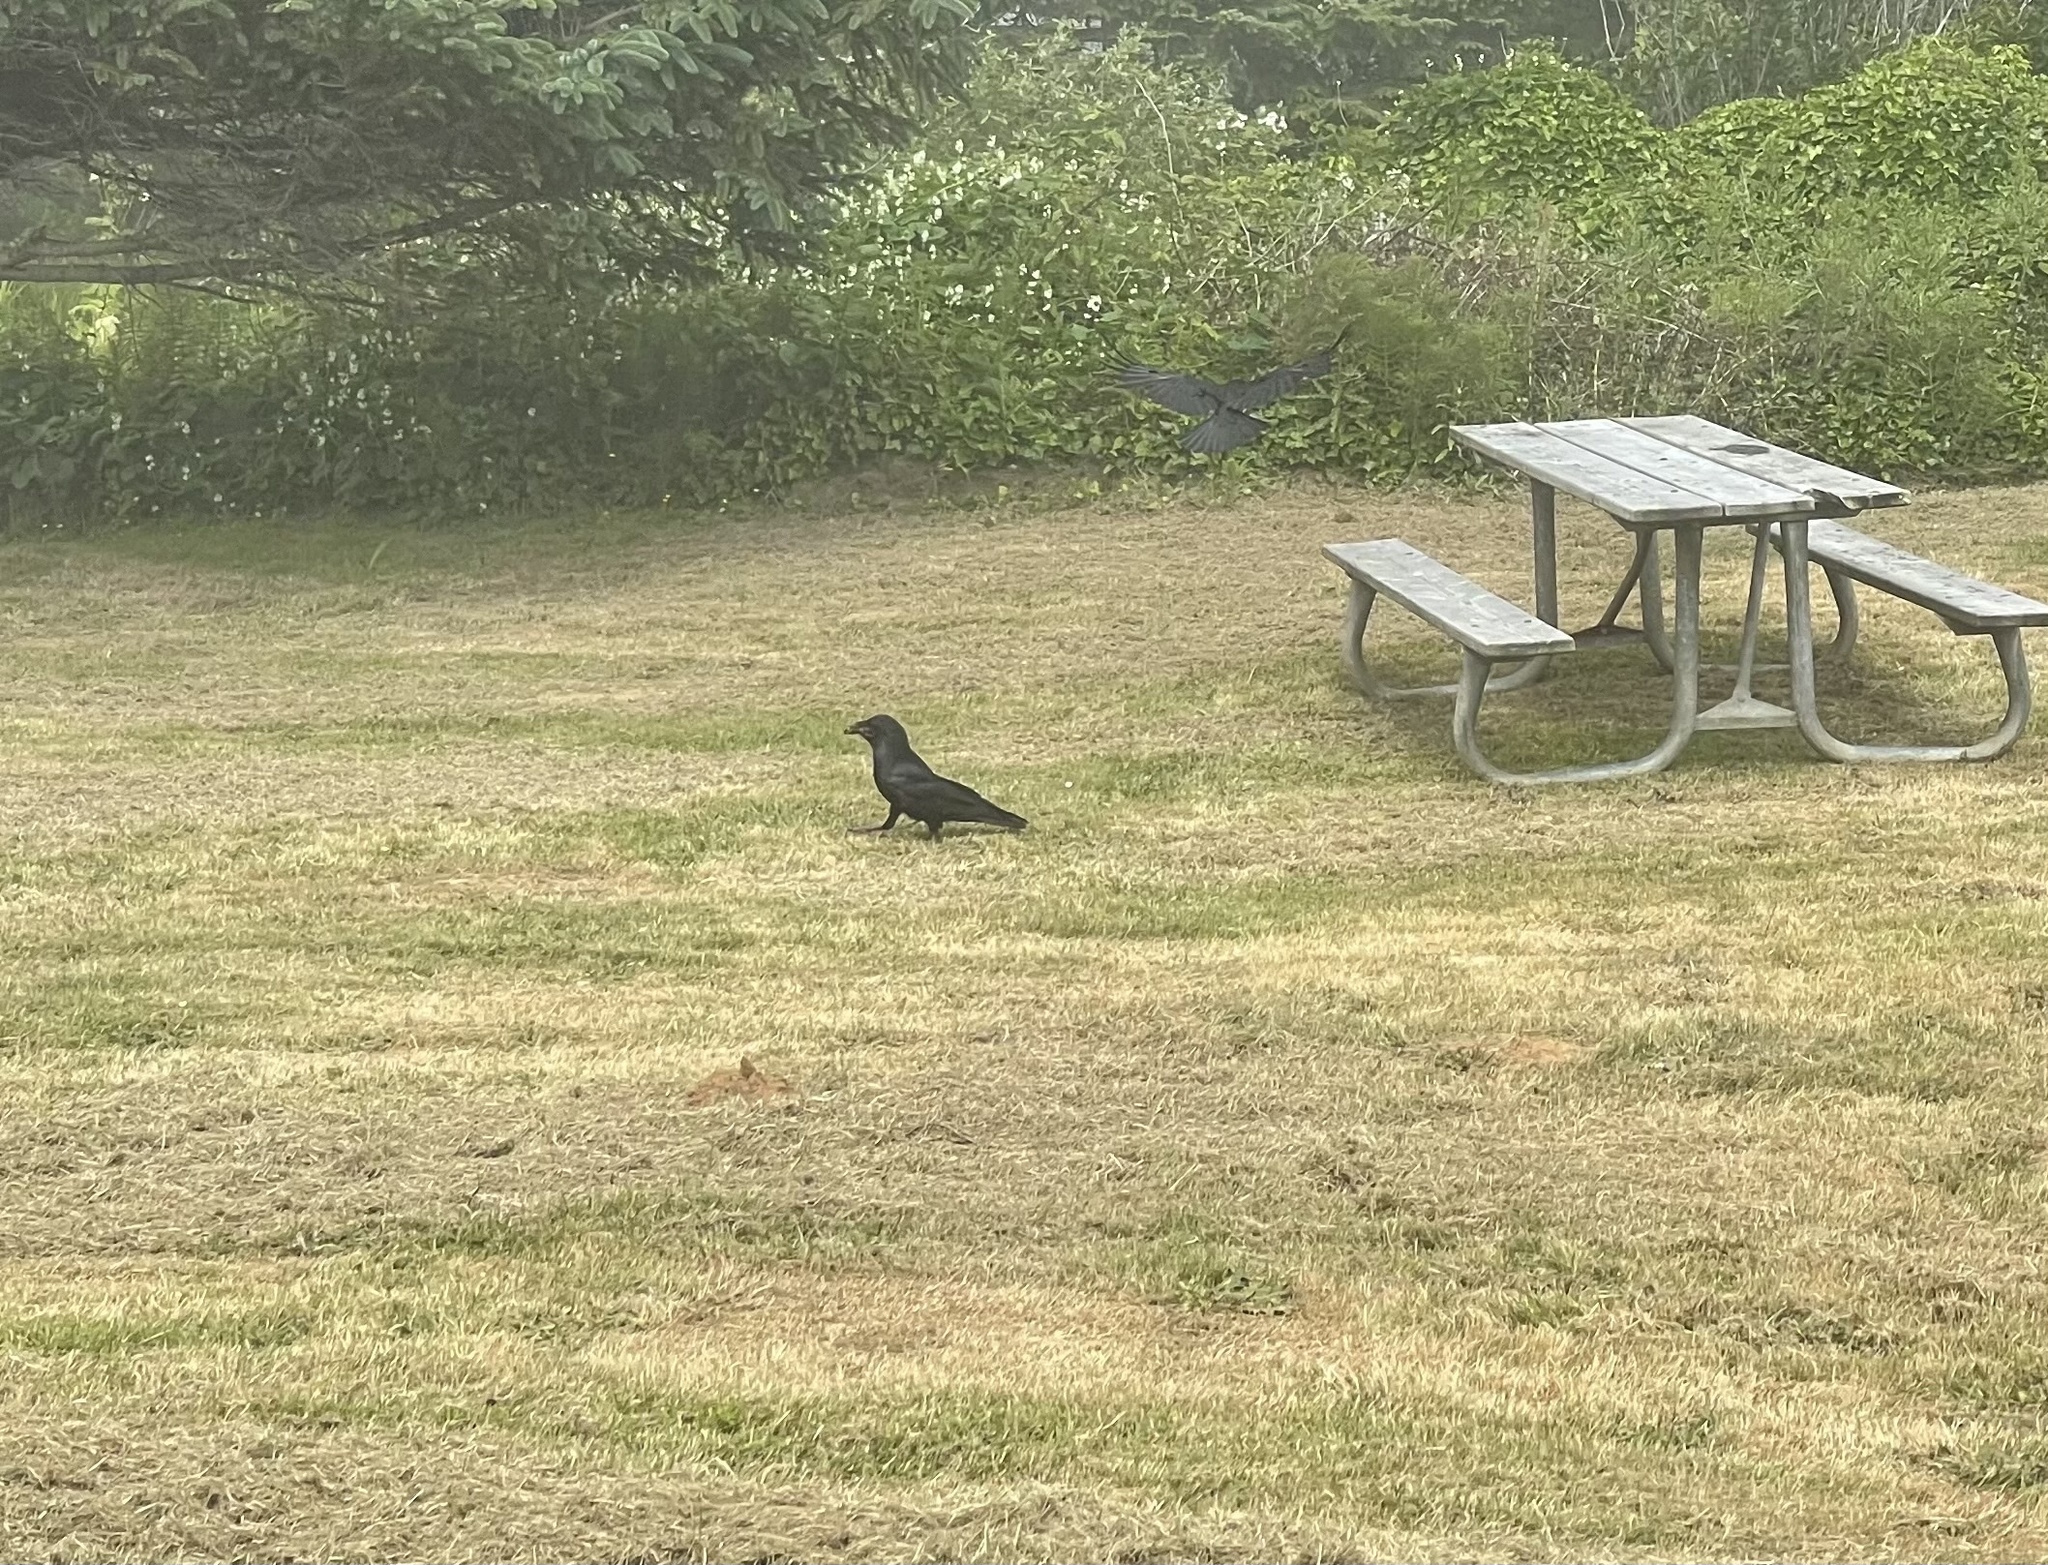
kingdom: Animalia
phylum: Chordata
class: Aves
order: Passeriformes
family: Corvidae
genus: Corvus
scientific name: Corvus corax
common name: Common raven
